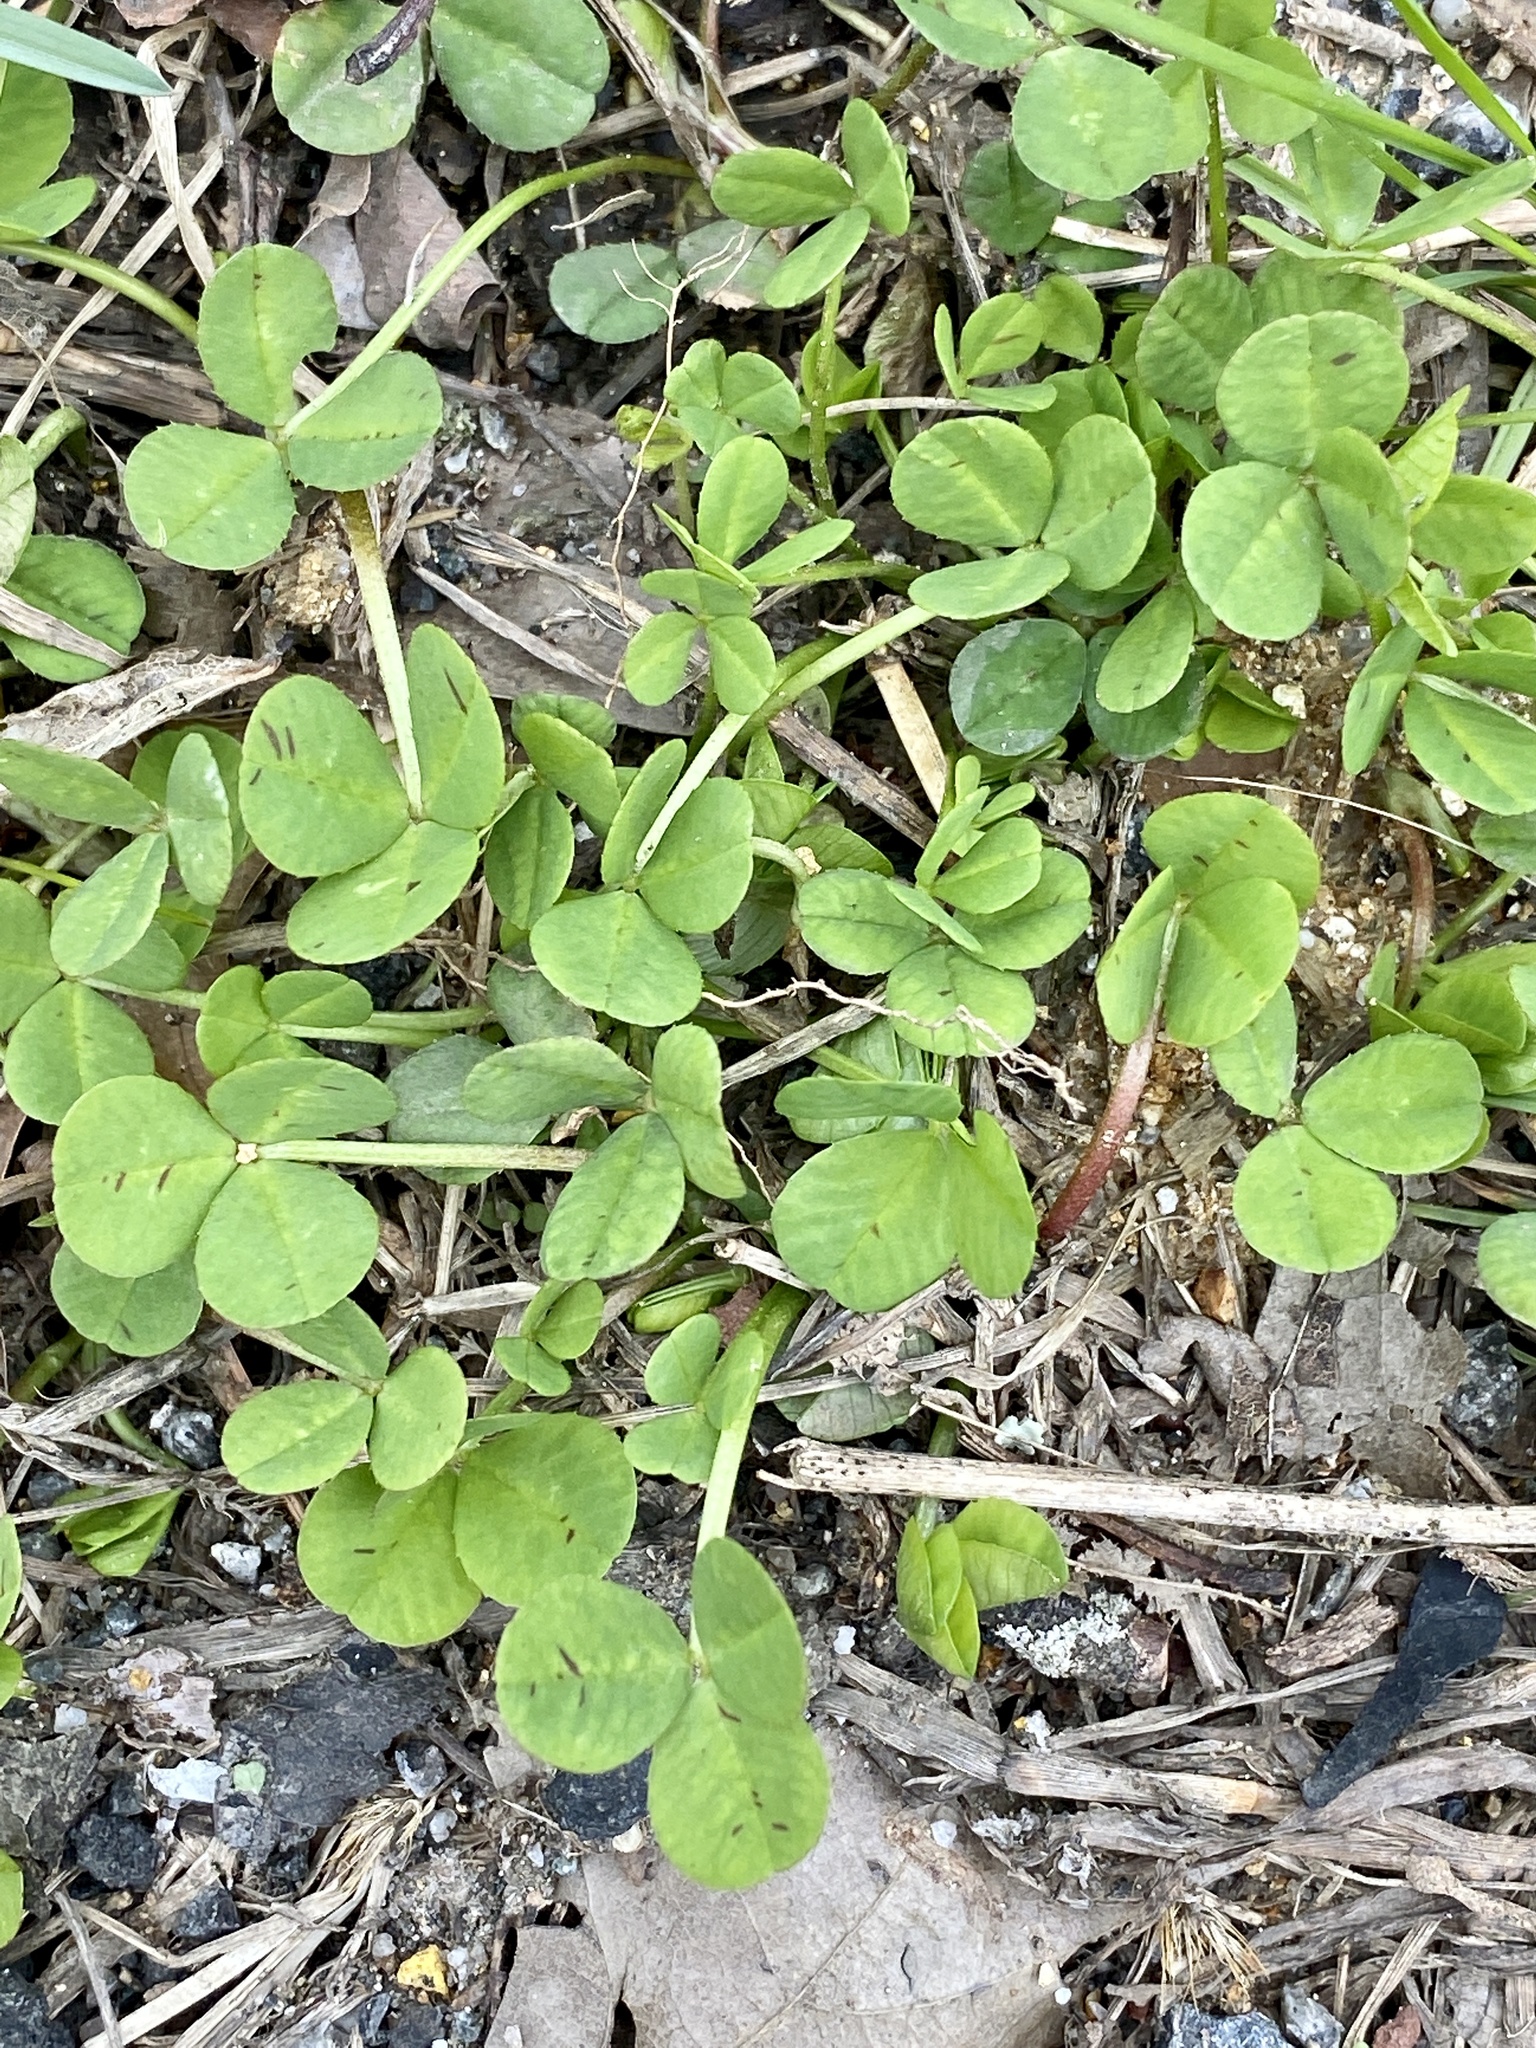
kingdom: Plantae
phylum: Tracheophyta
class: Magnoliopsida
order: Fabales
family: Fabaceae
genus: Trifolium
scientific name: Trifolium repens
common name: White clover
